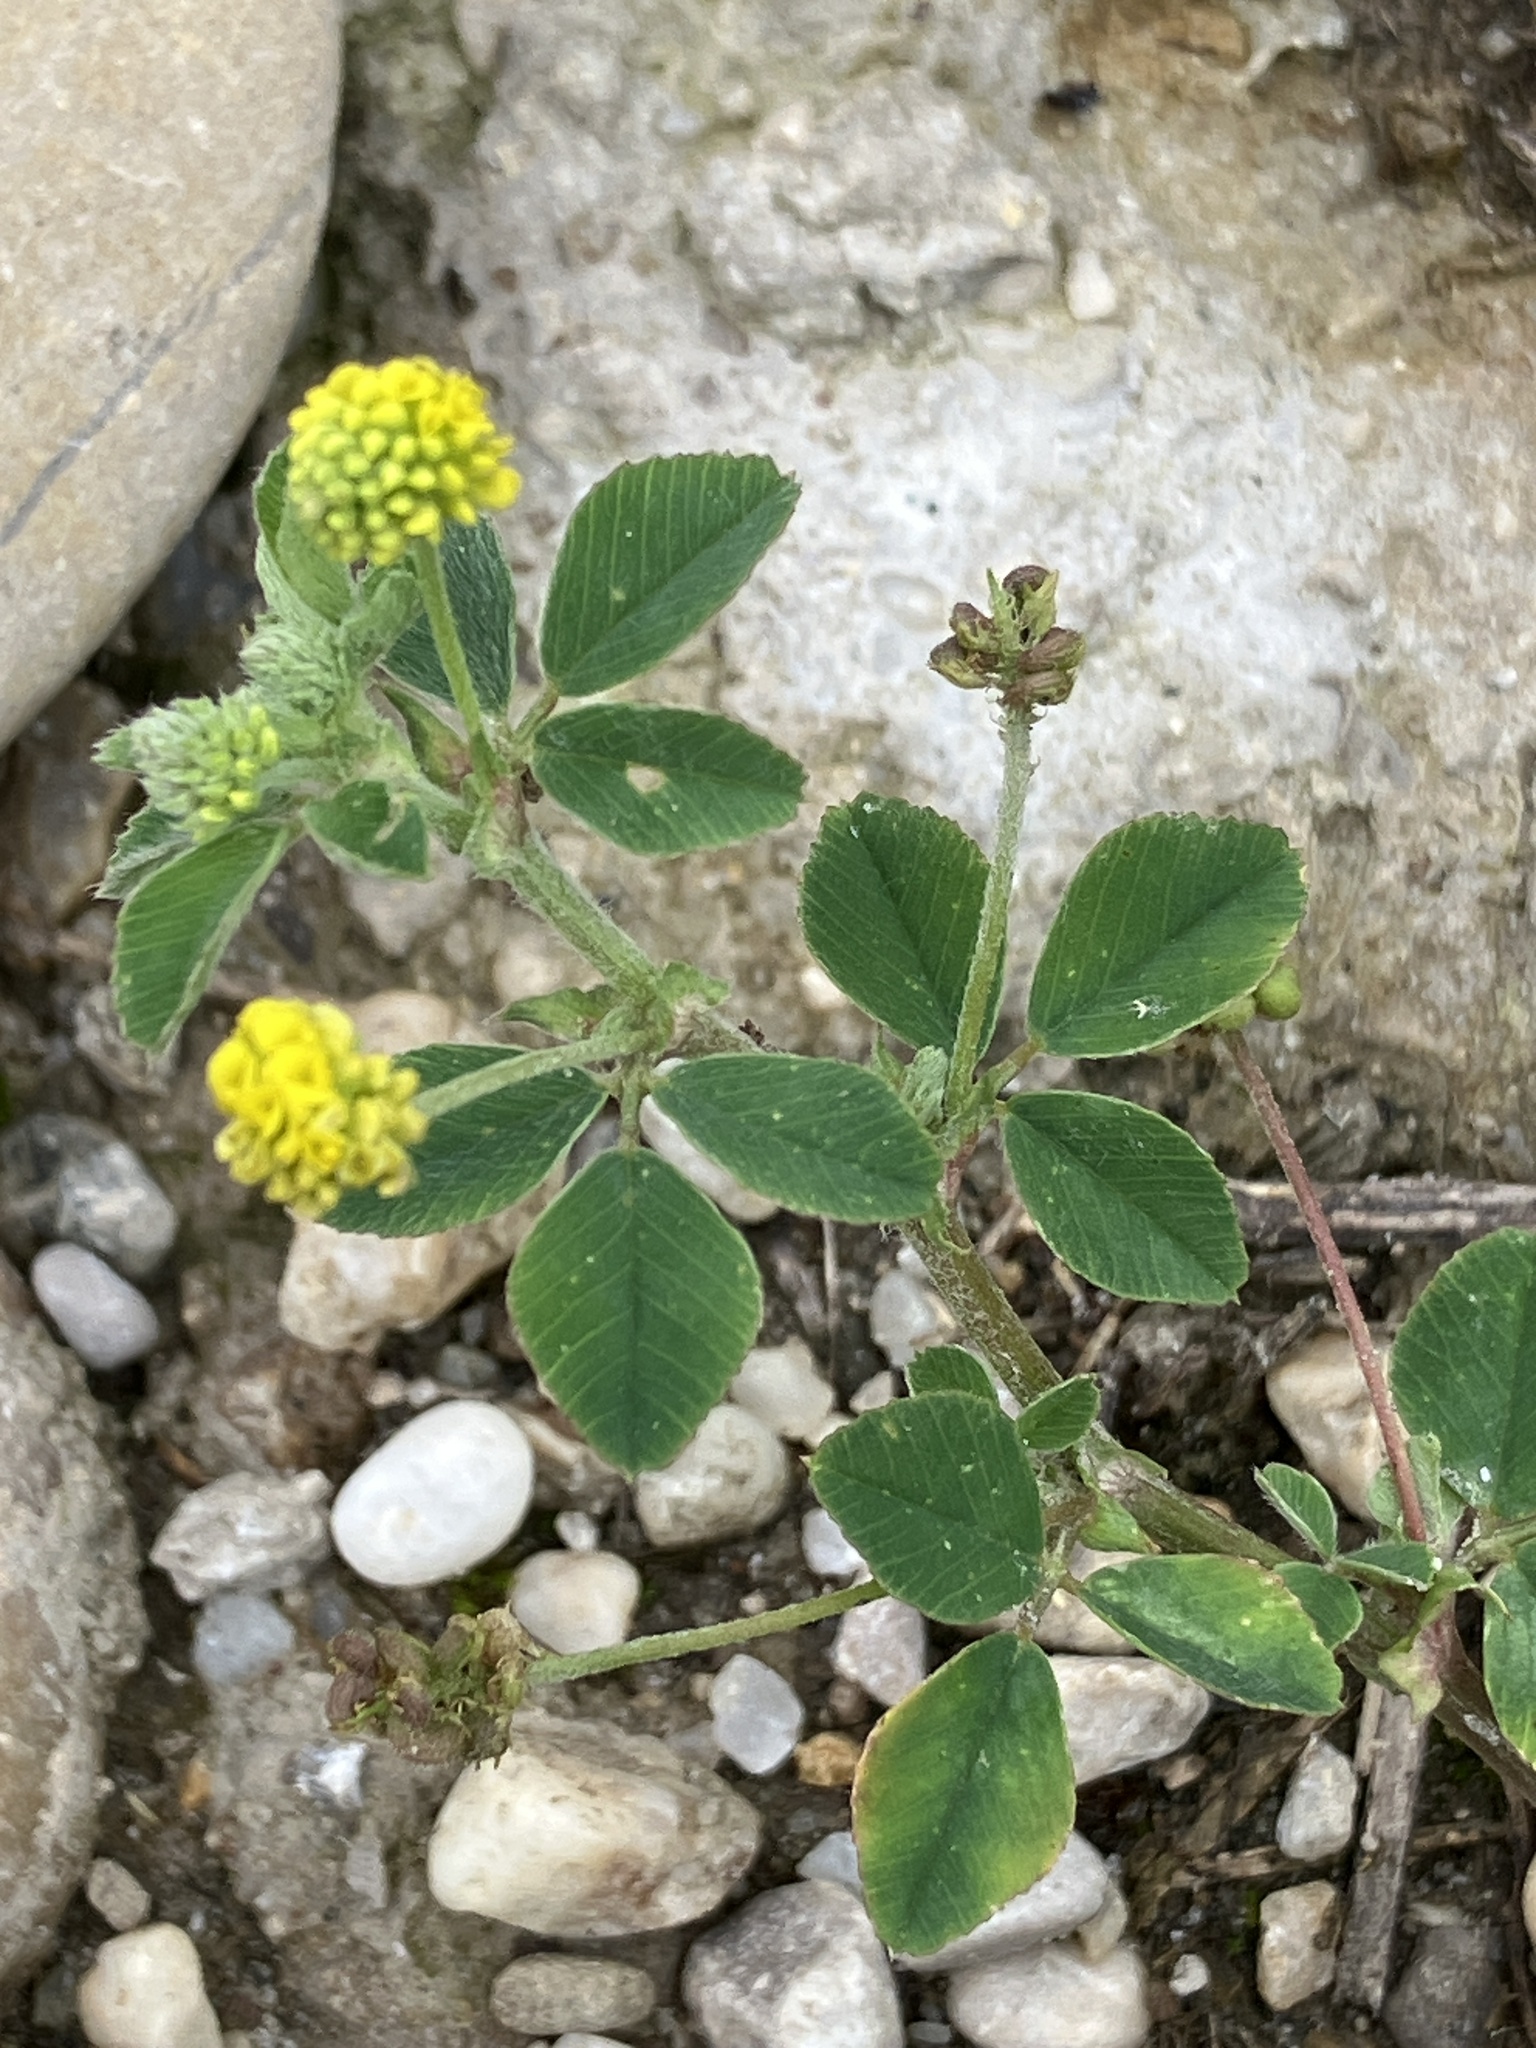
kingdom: Plantae
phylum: Tracheophyta
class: Magnoliopsida
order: Fabales
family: Fabaceae
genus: Medicago
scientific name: Medicago lupulina
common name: Black medick
